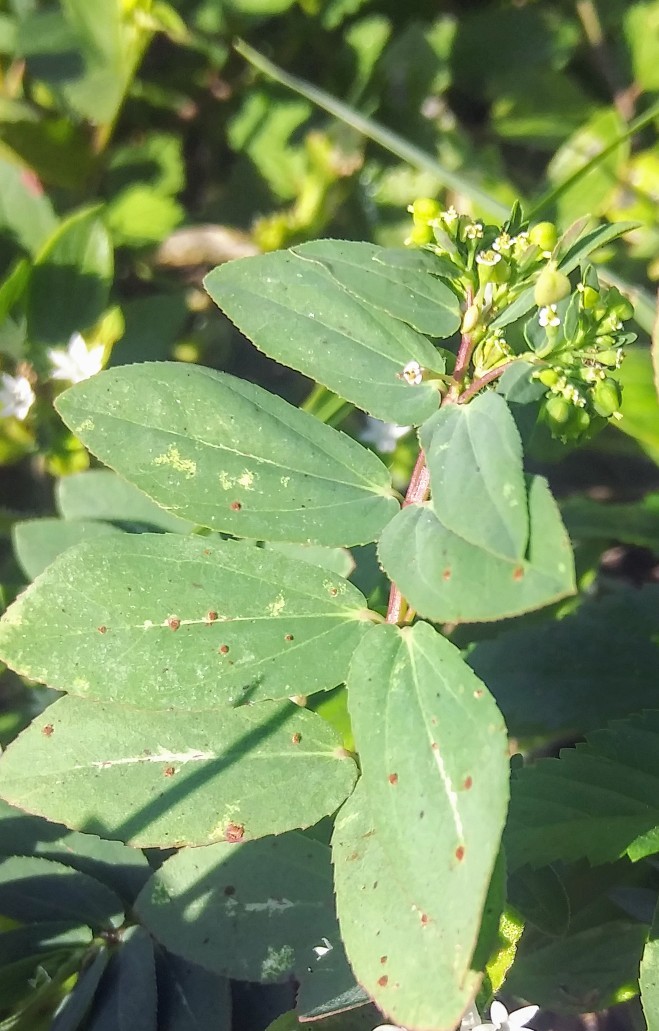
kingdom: Plantae
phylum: Tracheophyta
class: Magnoliopsida
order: Malpighiales
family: Euphorbiaceae
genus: Euphorbia
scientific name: Euphorbia hyssopifolia
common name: Hyssopleaf sandmat
